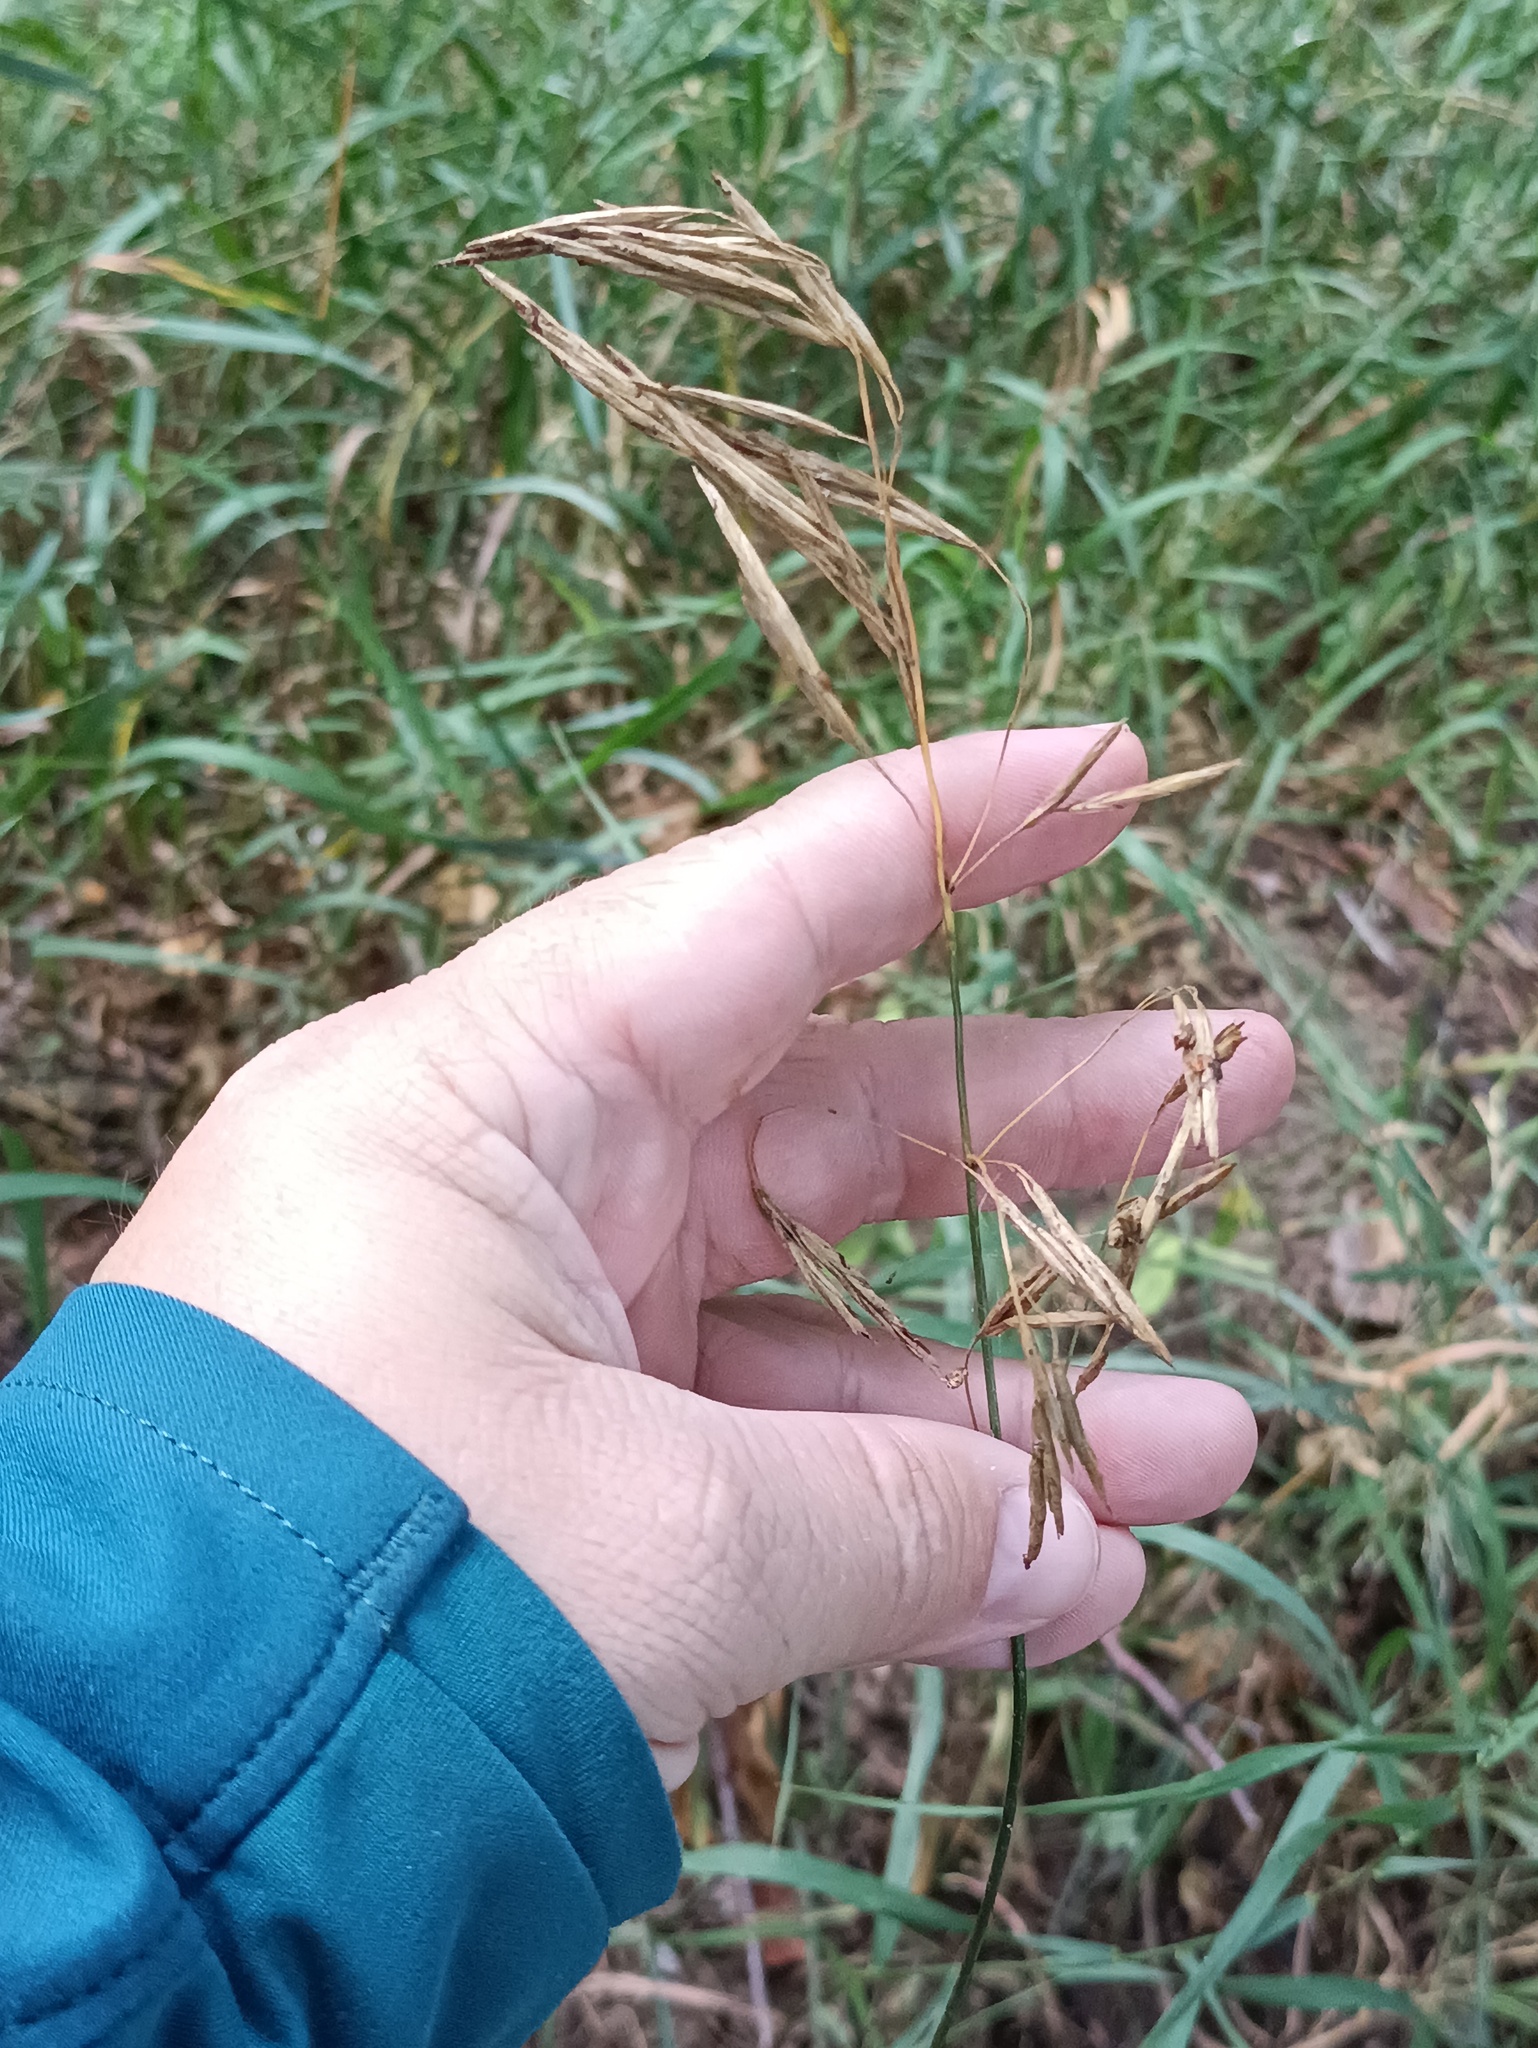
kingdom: Plantae
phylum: Tracheophyta
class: Liliopsida
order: Poales
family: Poaceae
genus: Bromus
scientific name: Bromus inermis
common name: Smooth brome
